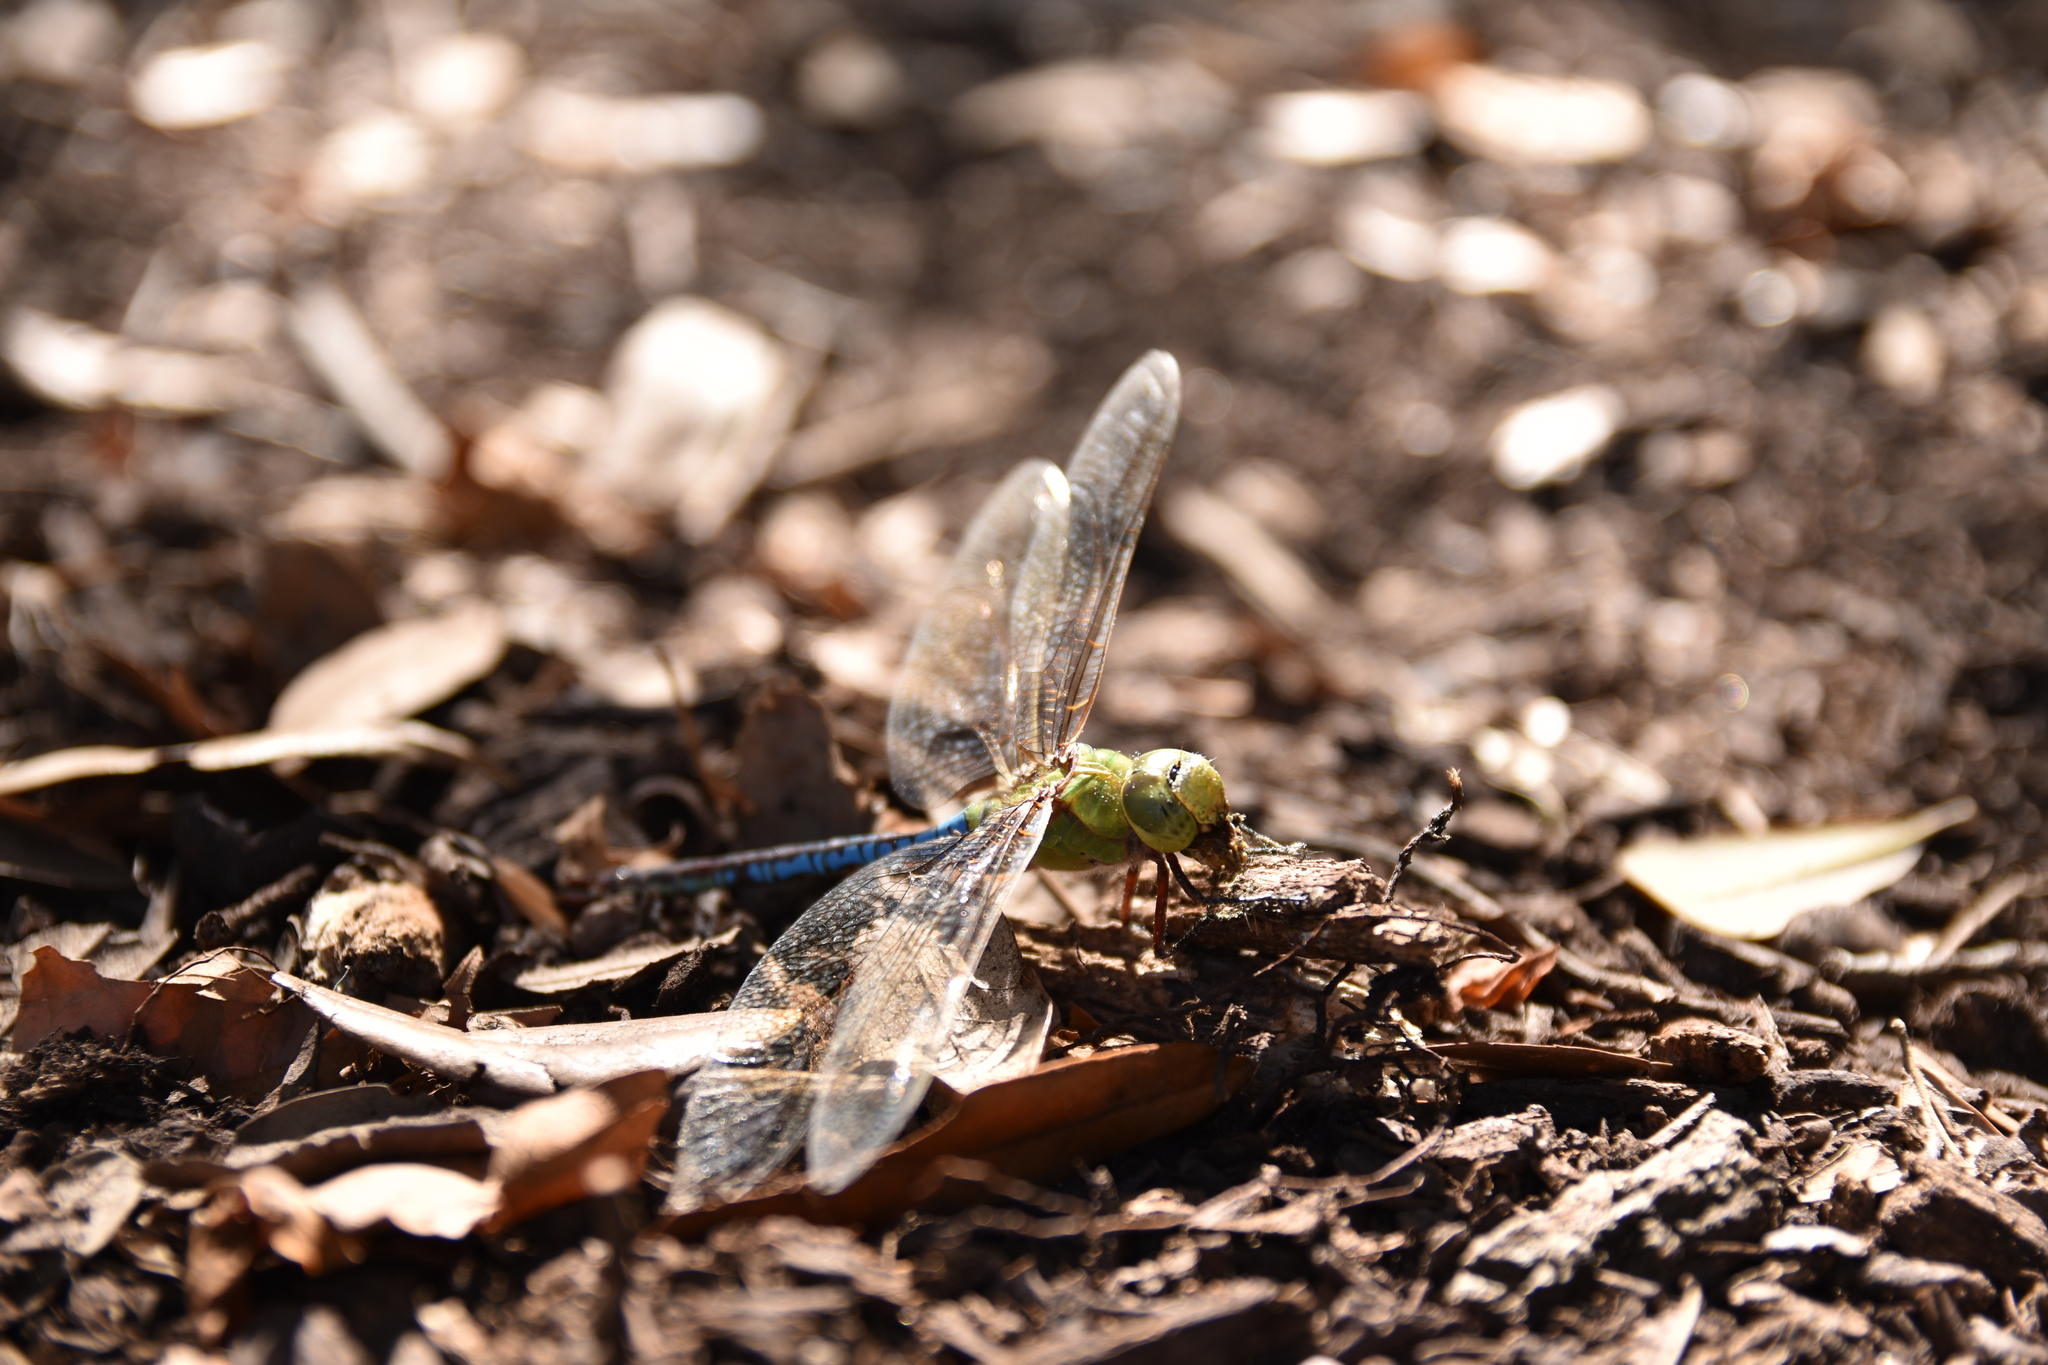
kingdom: Animalia
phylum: Arthropoda
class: Insecta
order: Odonata
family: Aeshnidae
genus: Anax
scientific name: Anax junius
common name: Common green darner
